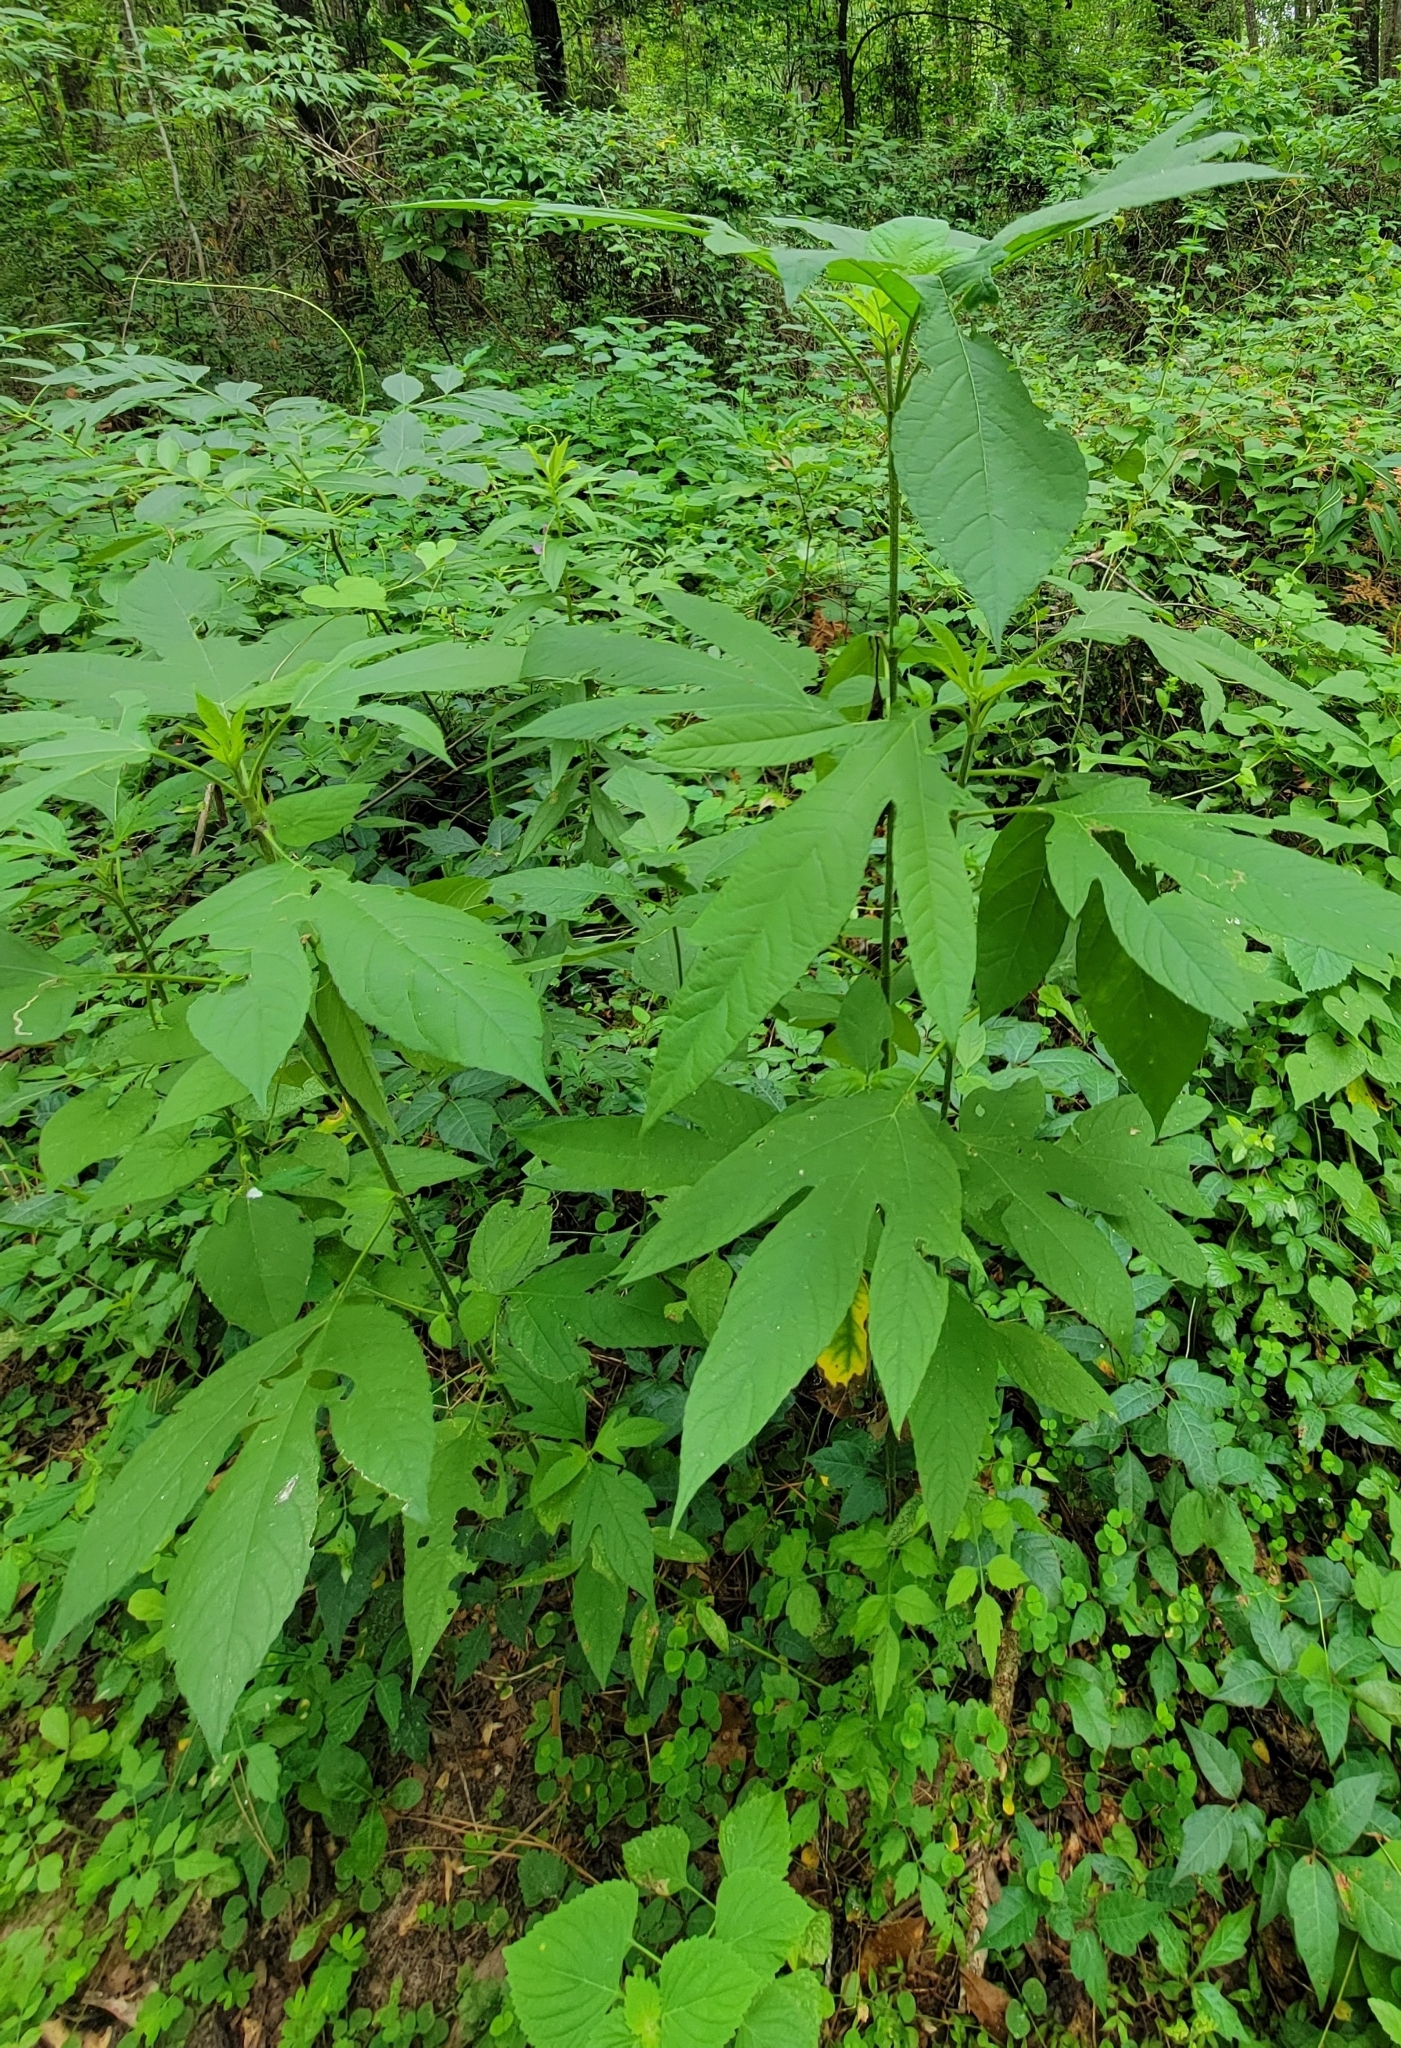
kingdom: Plantae
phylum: Tracheophyta
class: Magnoliopsida
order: Asterales
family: Asteraceae
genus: Ambrosia
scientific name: Ambrosia trifida
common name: Giant ragweed
